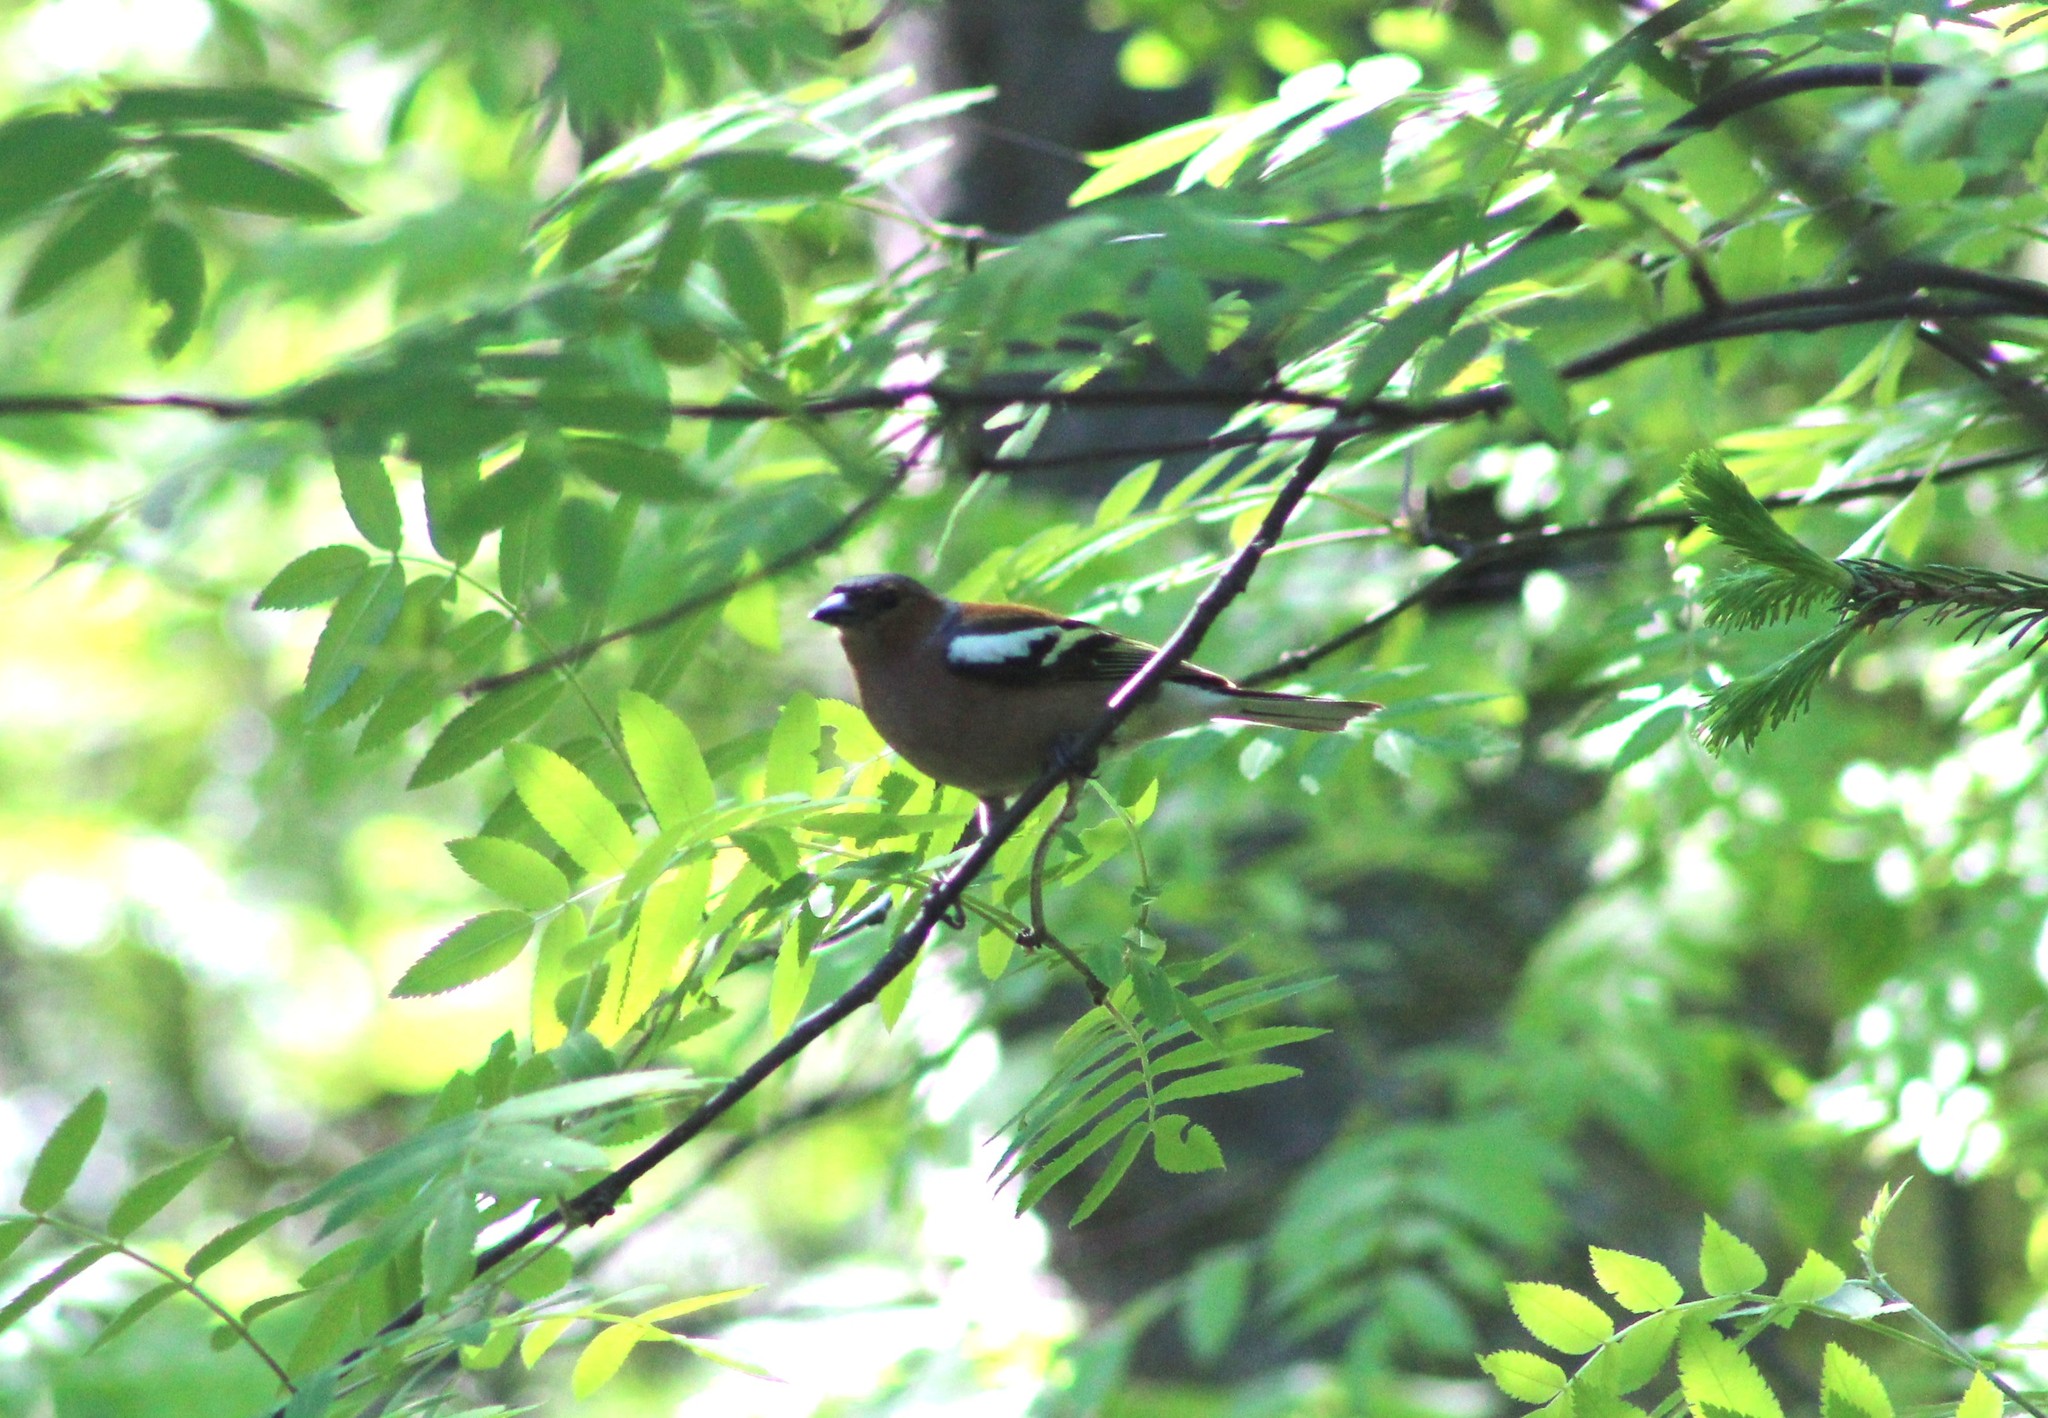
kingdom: Animalia
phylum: Chordata
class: Aves
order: Passeriformes
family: Fringillidae
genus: Fringilla
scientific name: Fringilla coelebs
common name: Common chaffinch
